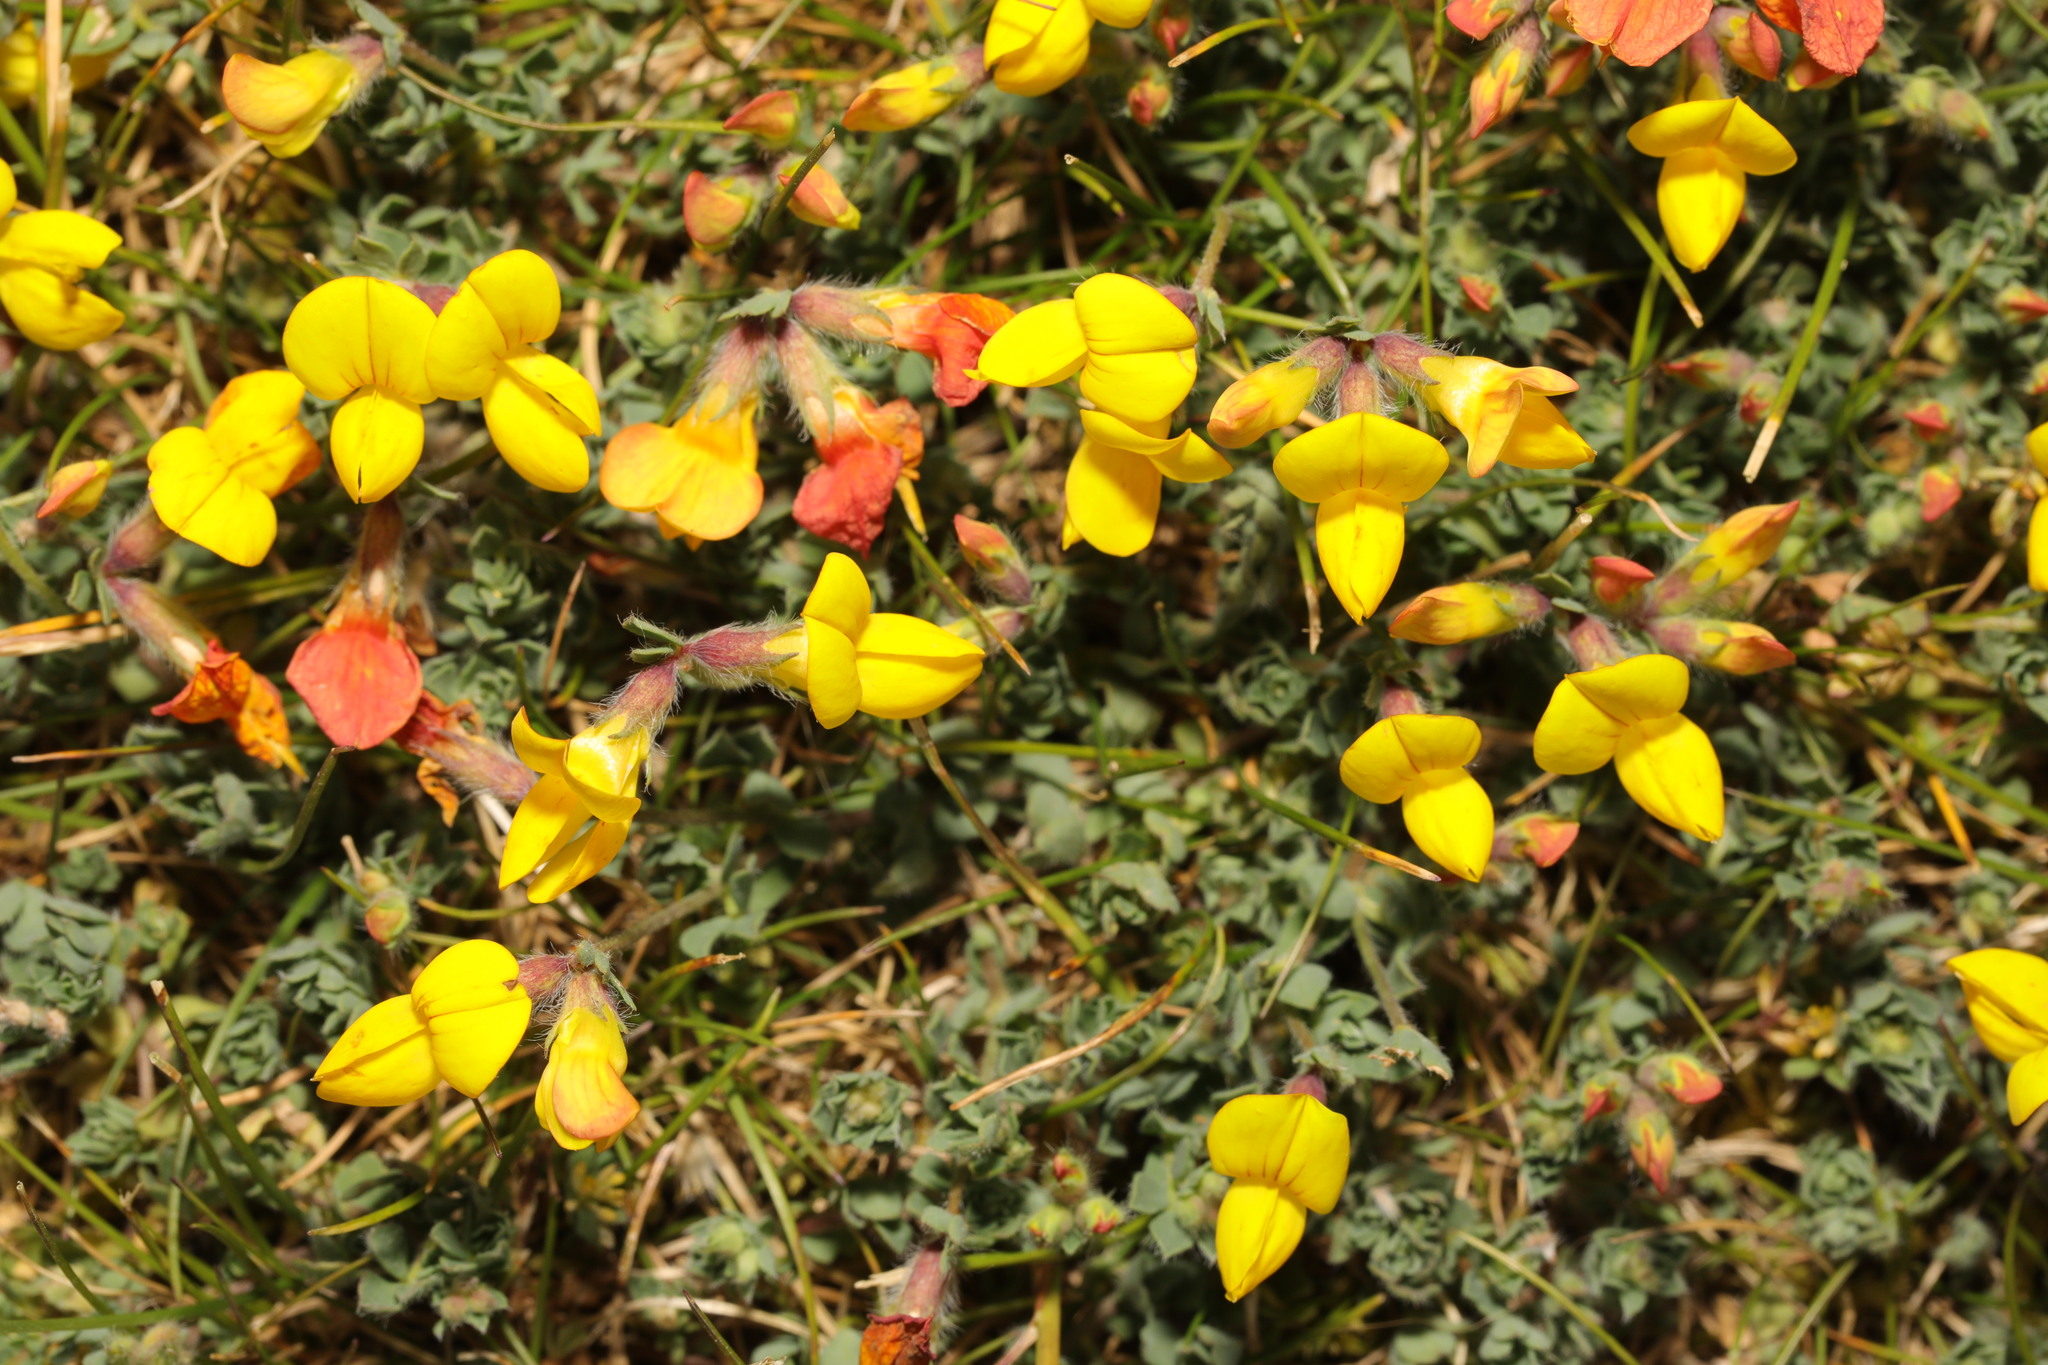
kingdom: Plantae
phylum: Tracheophyta
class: Magnoliopsida
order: Fabales
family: Fabaceae
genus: Lotus
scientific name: Lotus corniculatus
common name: Common bird's-foot-trefoil
